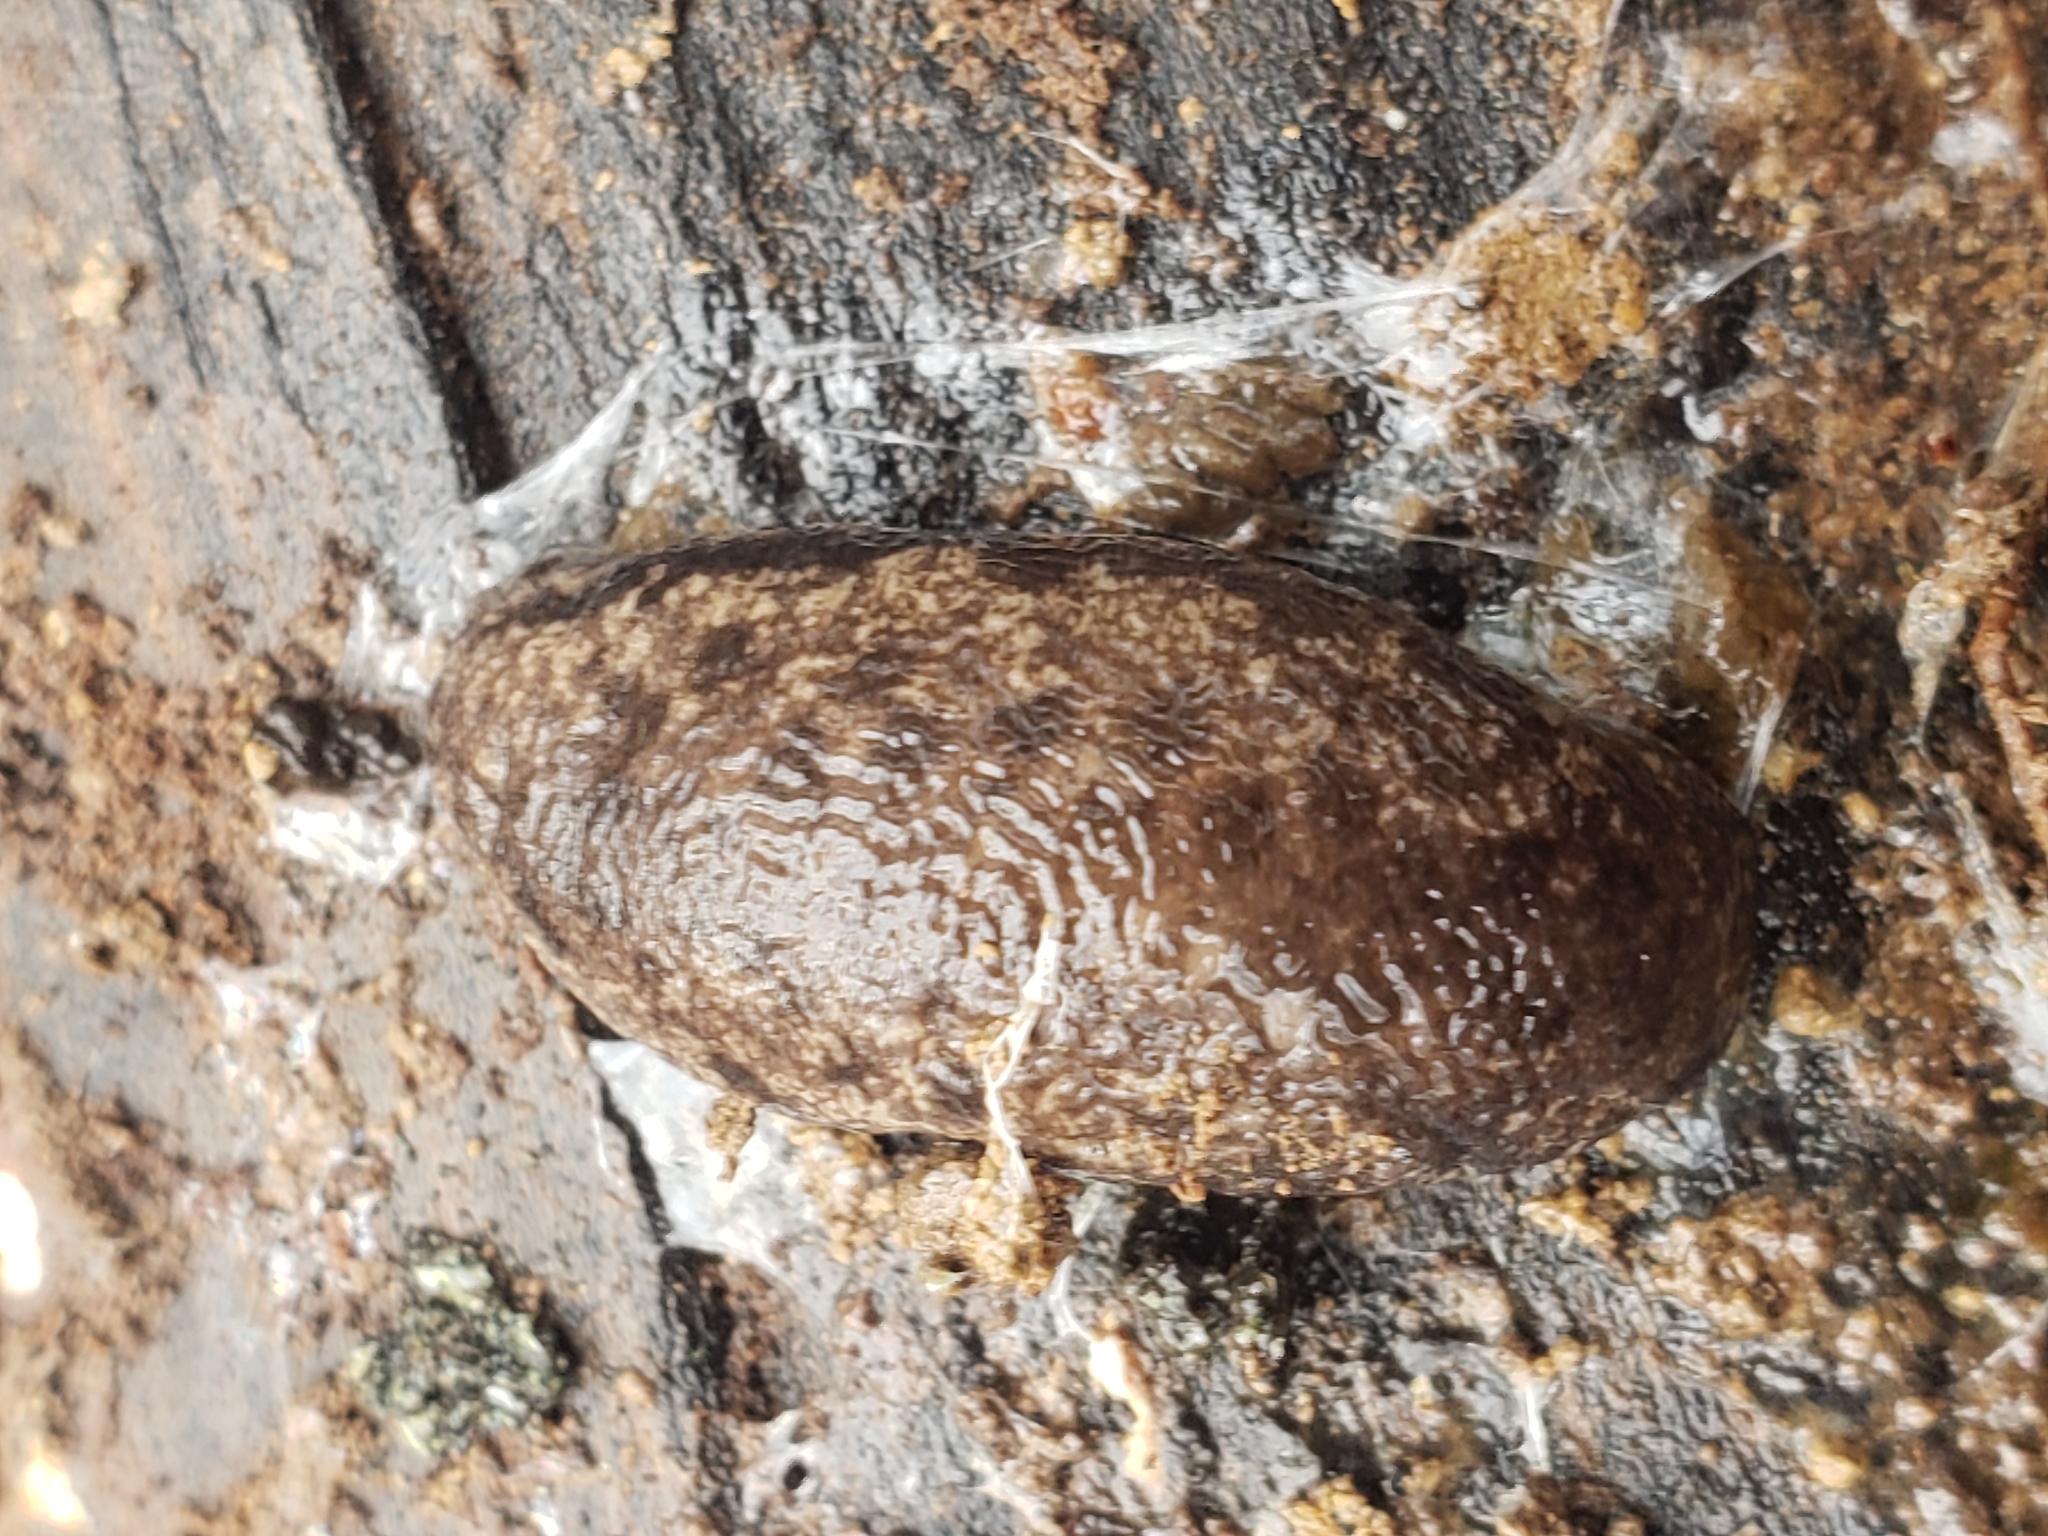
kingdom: Animalia
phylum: Mollusca
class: Gastropoda
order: Stylommatophora
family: Philomycidae
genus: Megapallifera
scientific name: Megapallifera mutabilis
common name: Changeable mantleslug
